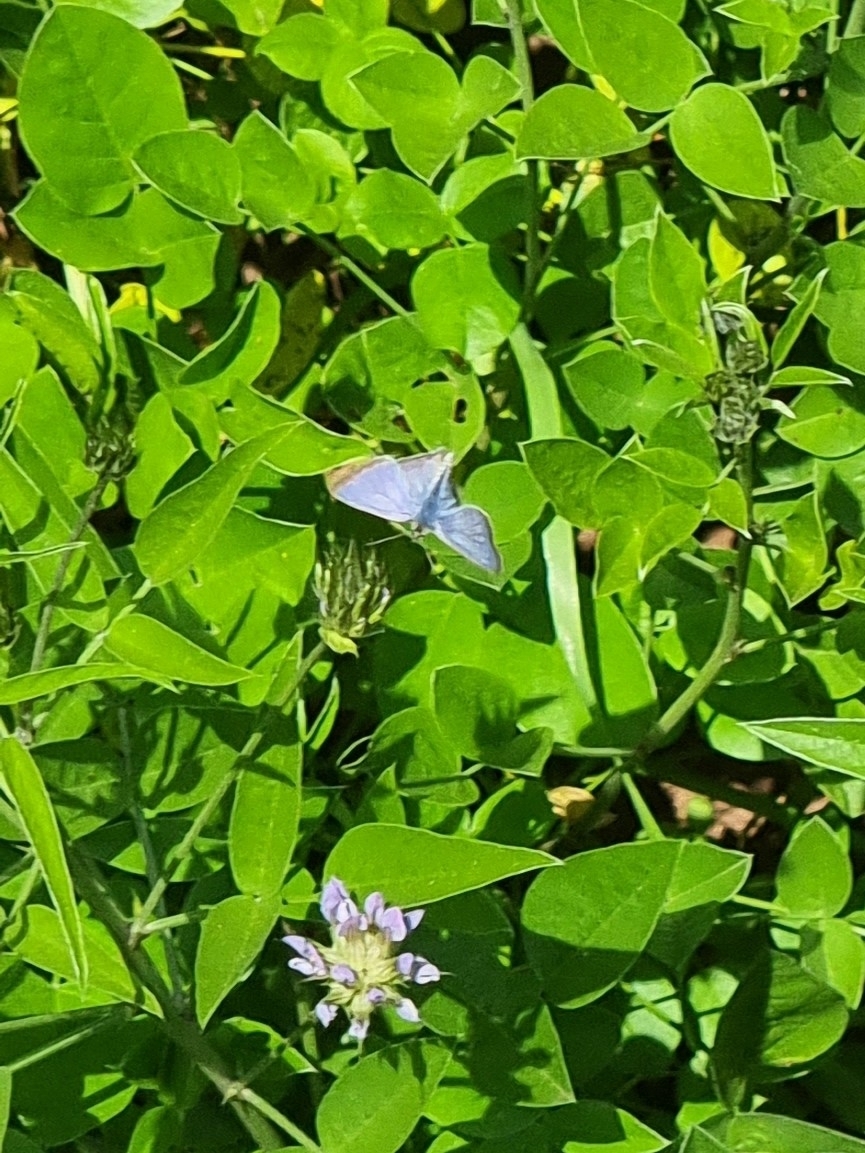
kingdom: Animalia
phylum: Arthropoda
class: Insecta
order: Lepidoptera
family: Lycaenidae
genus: Lampides
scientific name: Lampides boeticus
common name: Long-tailed blue
